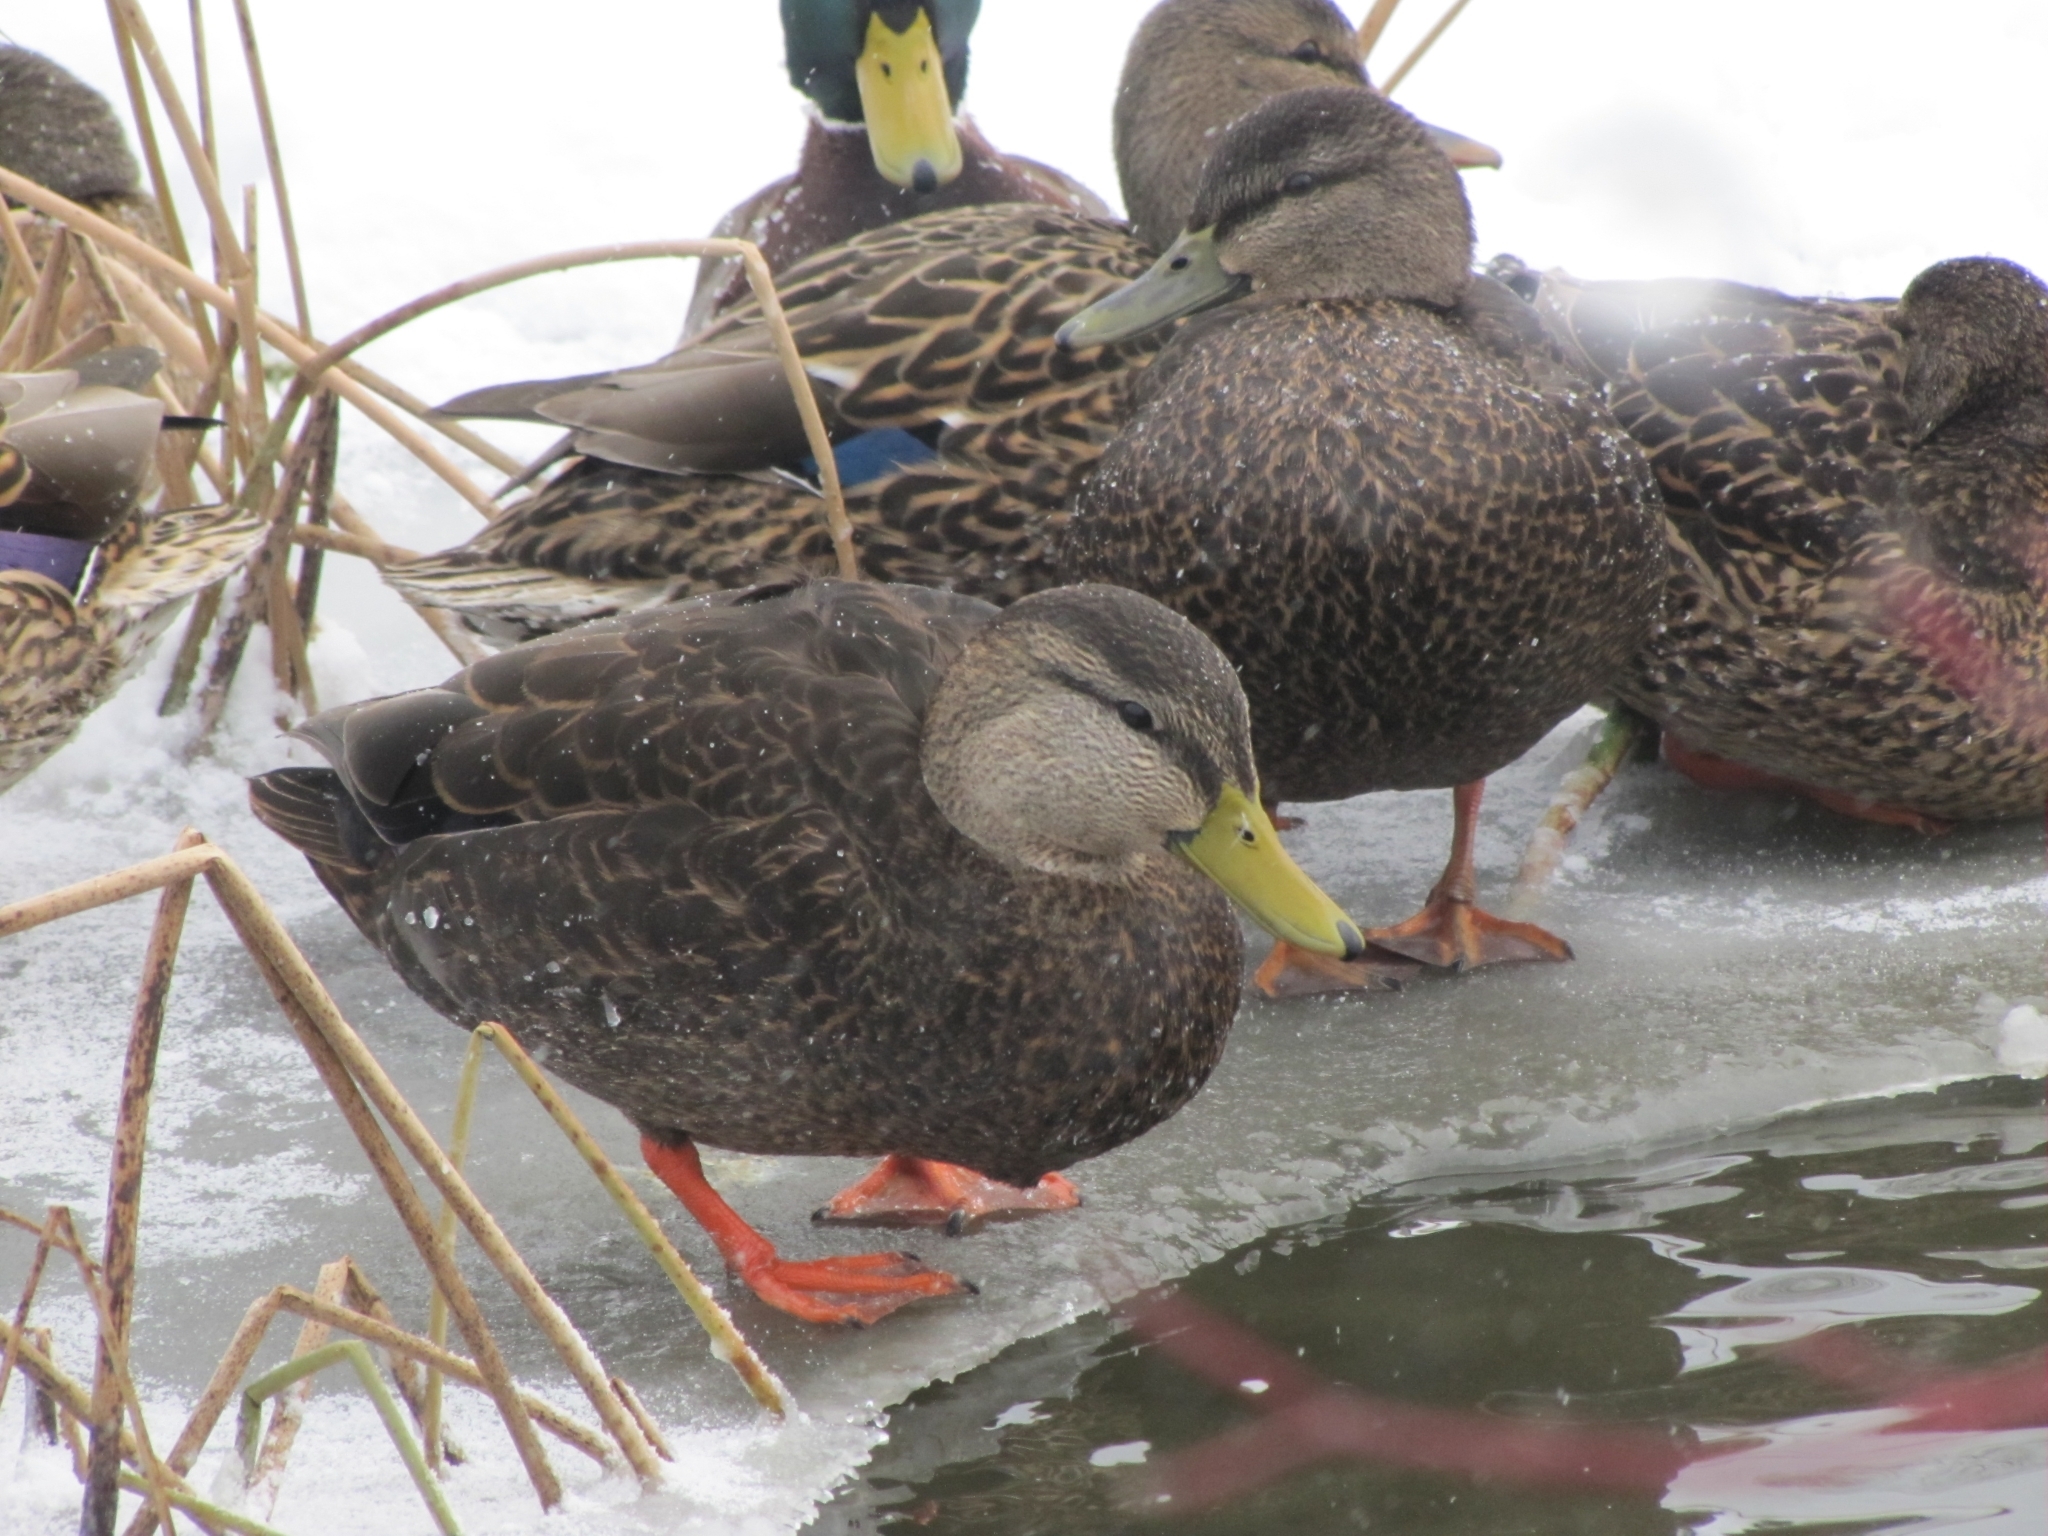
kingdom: Animalia
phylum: Chordata
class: Aves
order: Anseriformes
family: Anatidae
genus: Anas
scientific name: Anas rubripes
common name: American black duck
